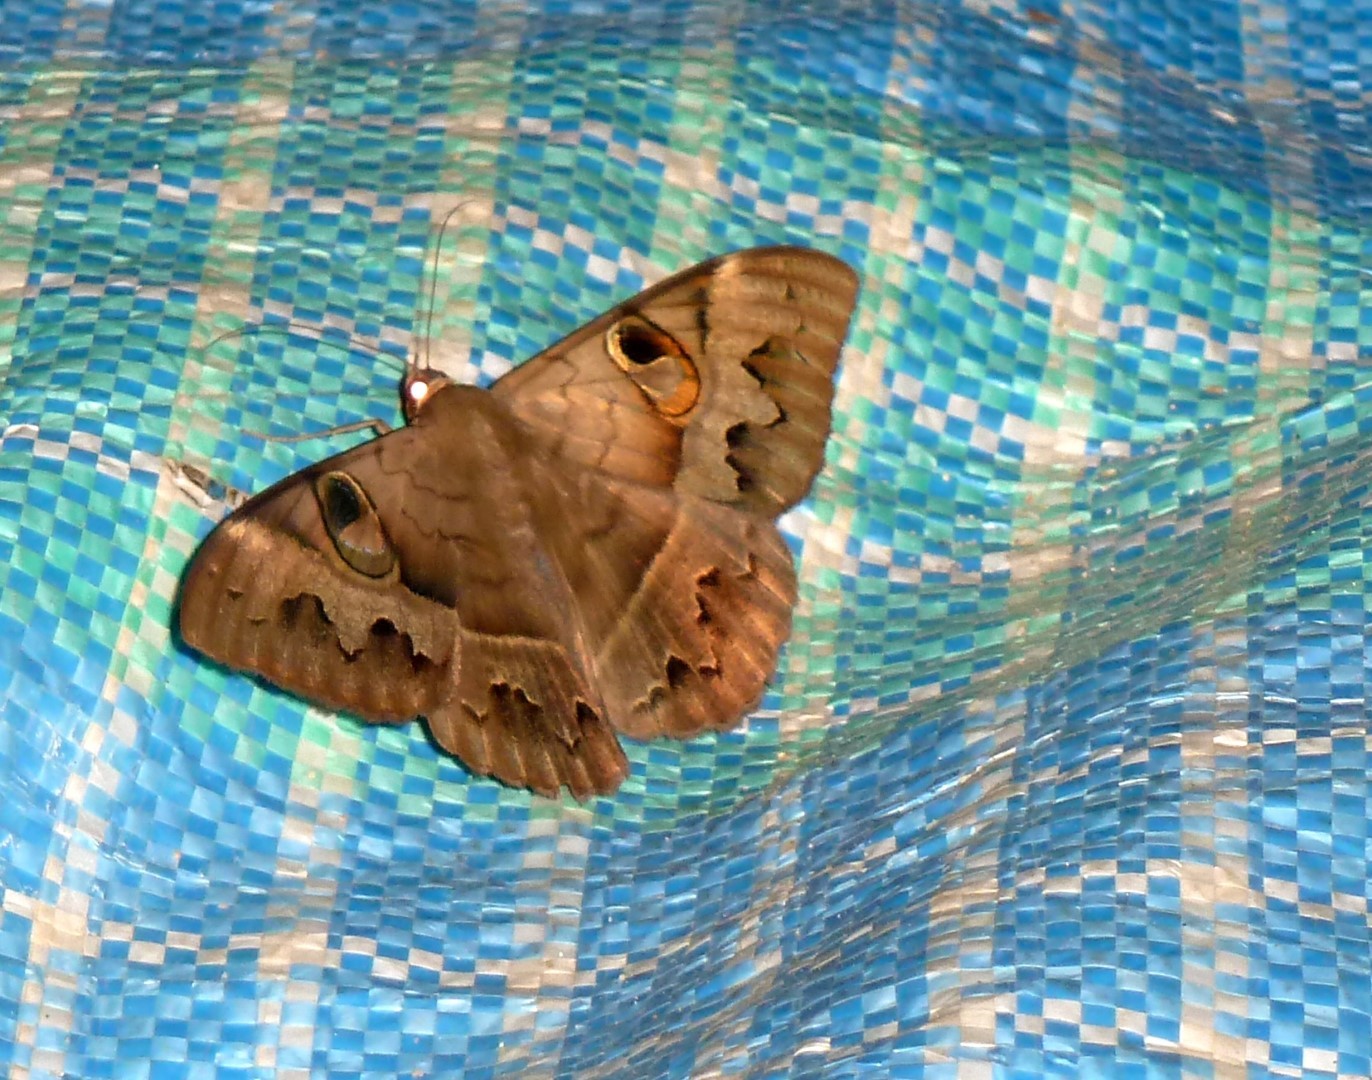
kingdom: Animalia
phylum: Arthropoda
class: Insecta
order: Lepidoptera
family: Erebidae
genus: Cyligramma
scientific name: Cyligramma fluctuosa
